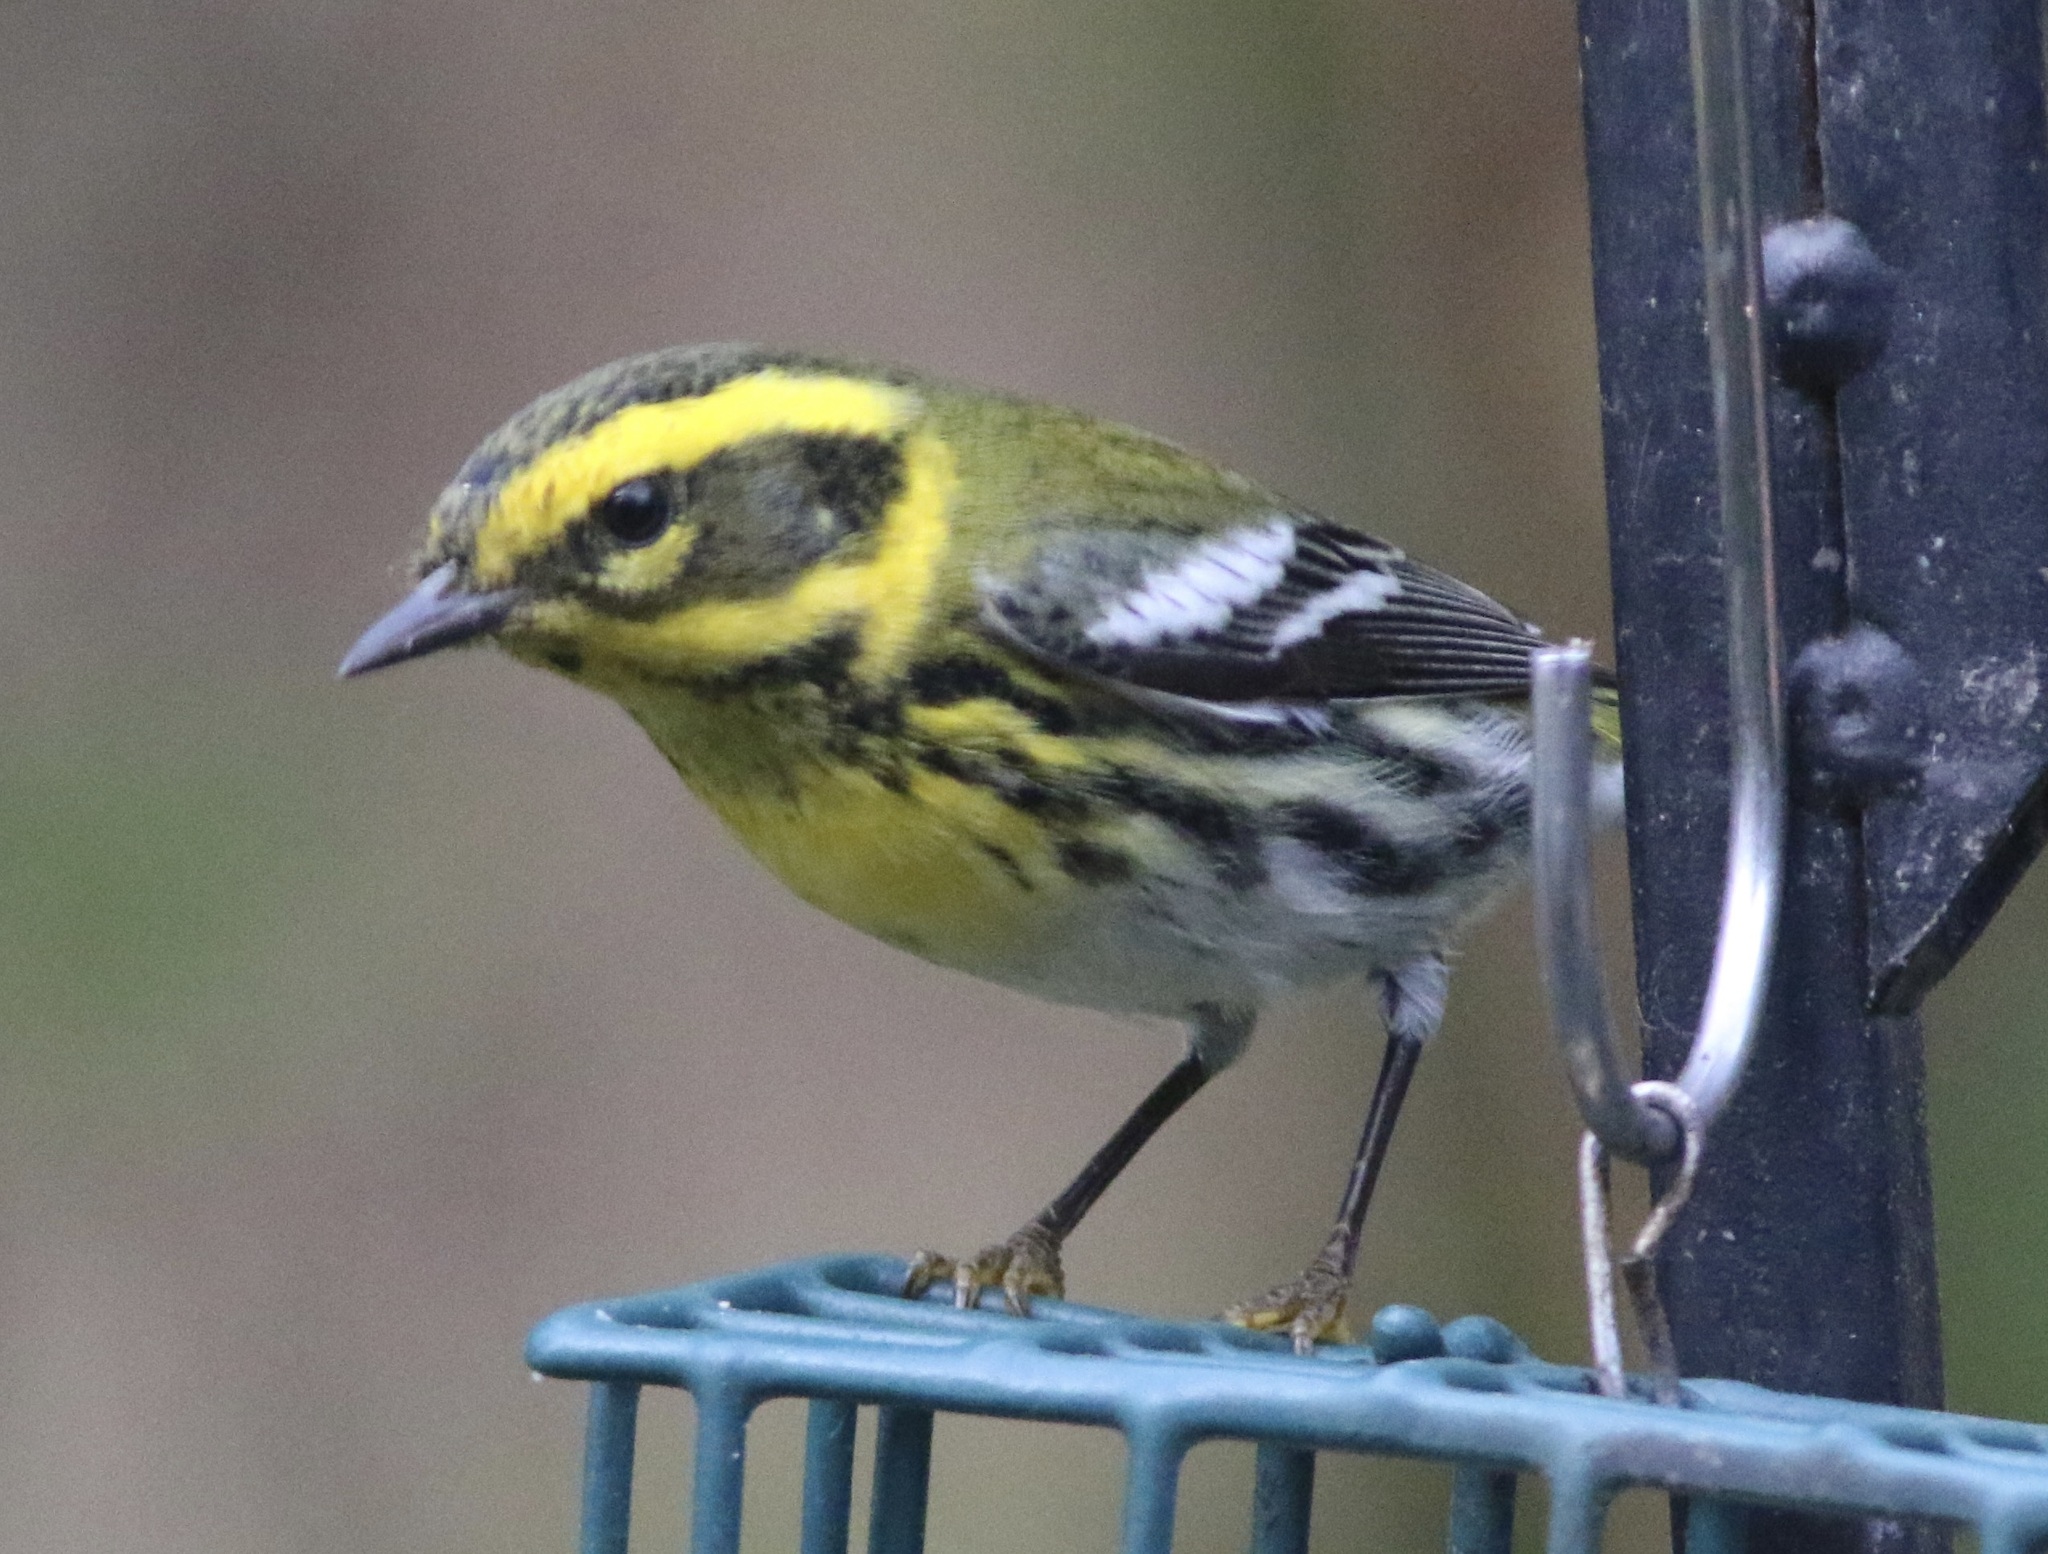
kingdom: Animalia
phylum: Chordata
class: Aves
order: Passeriformes
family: Parulidae
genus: Setophaga
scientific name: Setophaga townsendi
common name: Townsend's warbler
